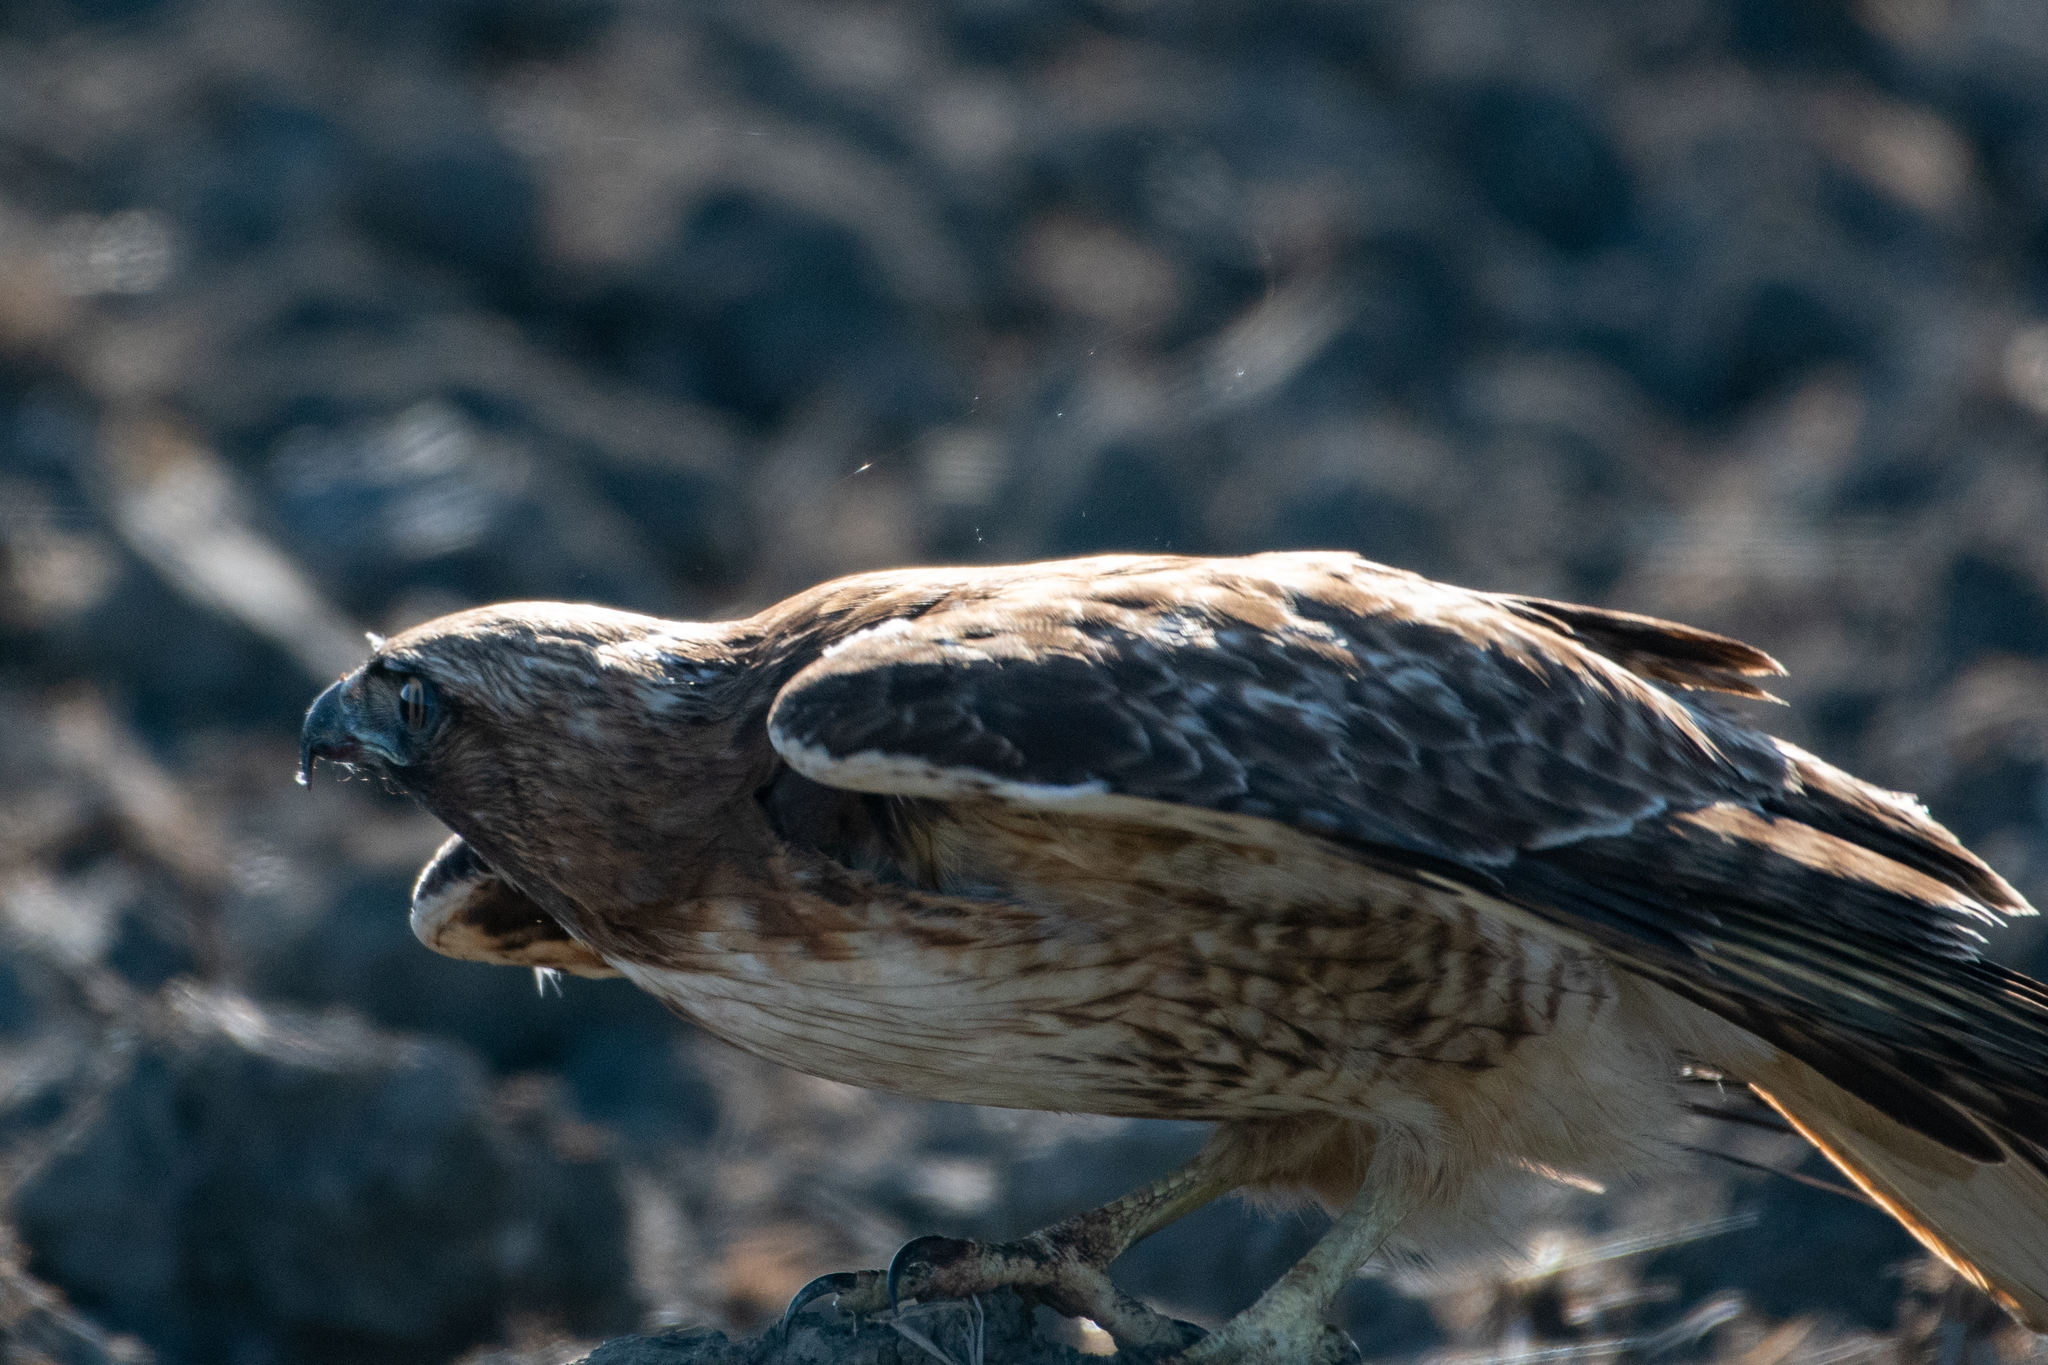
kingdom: Animalia
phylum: Chordata
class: Aves
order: Accipitriformes
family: Accipitridae
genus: Buteo
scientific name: Buteo jamaicensis
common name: Red-tailed hawk
